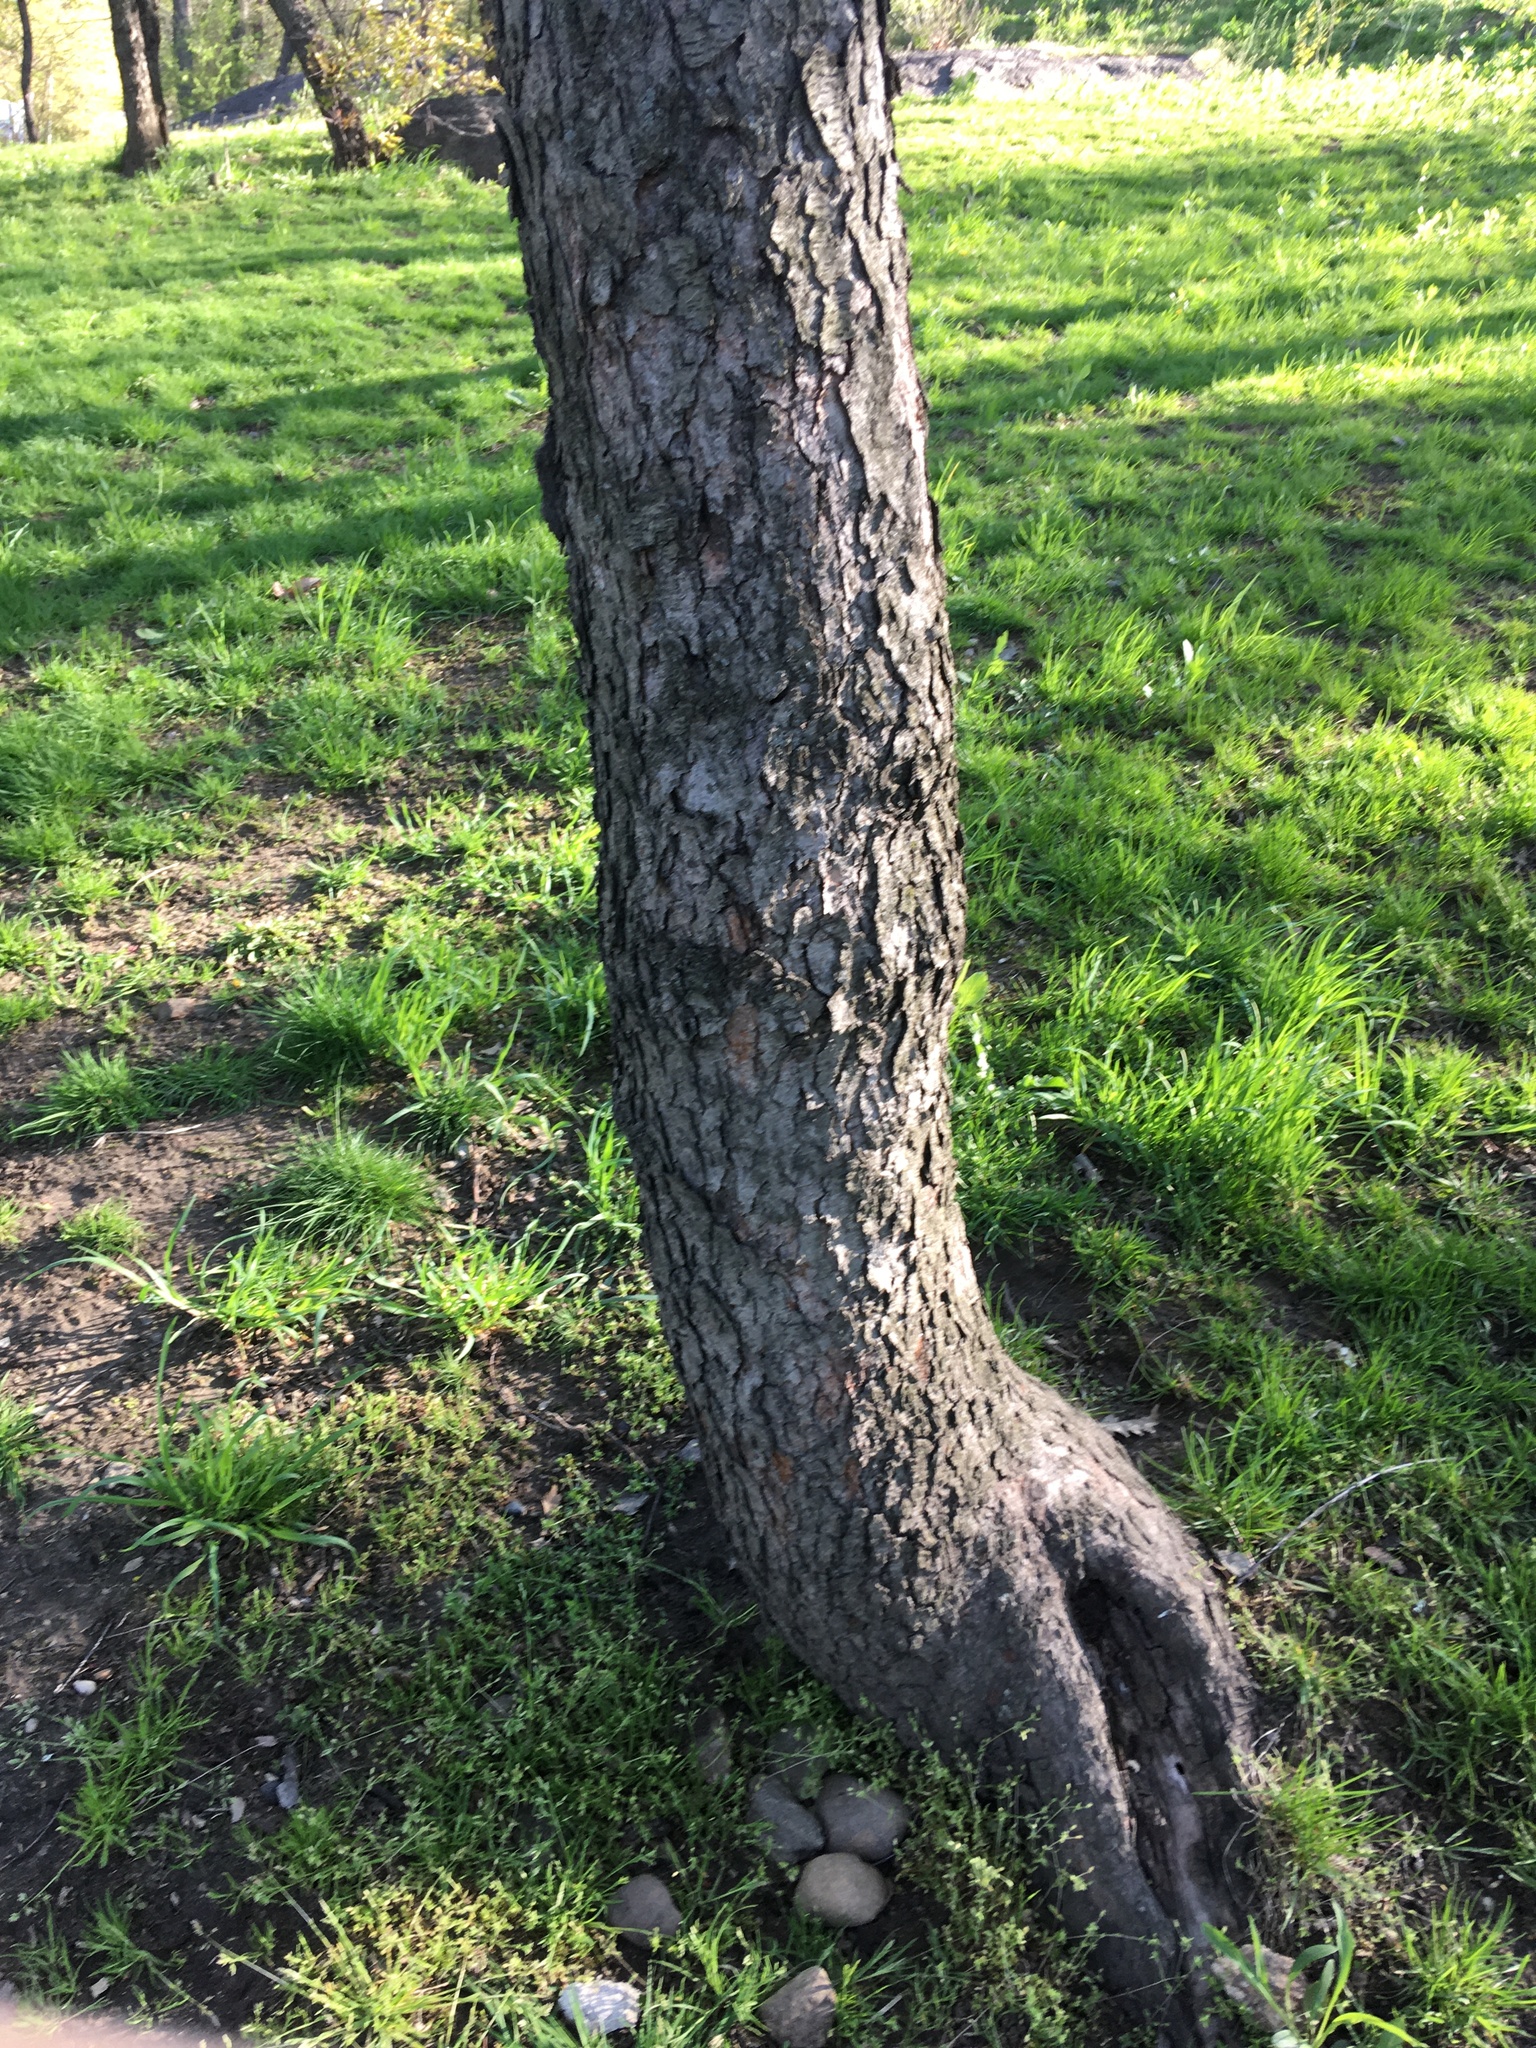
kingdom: Plantae
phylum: Tracheophyta
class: Magnoliopsida
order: Rosales
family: Rosaceae
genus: Prunus
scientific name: Prunus serotina
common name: Black cherry
